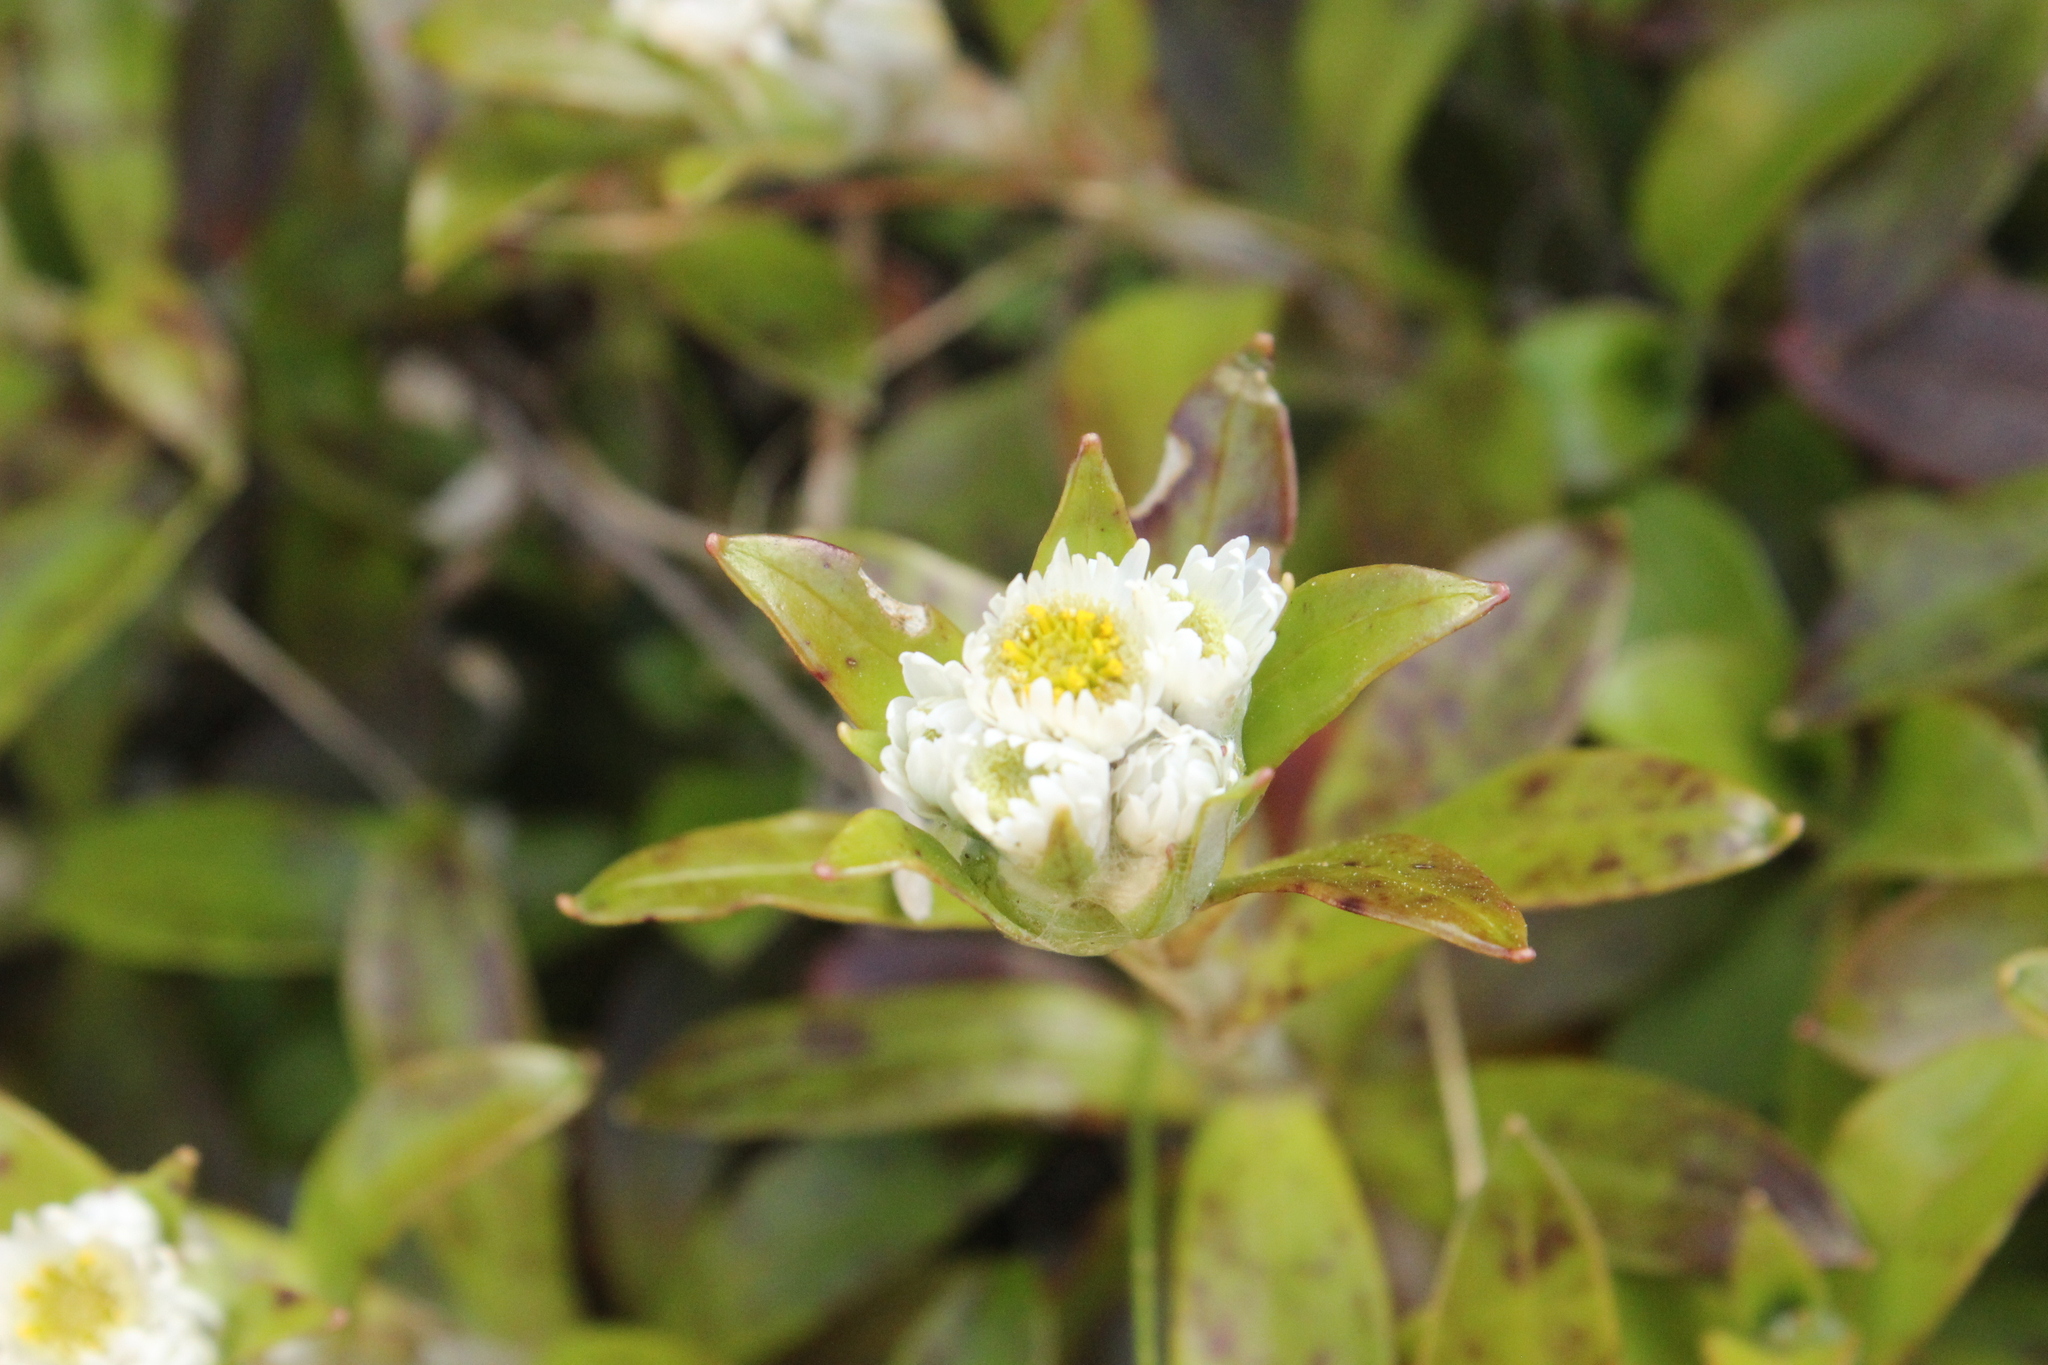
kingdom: Plantae
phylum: Tracheophyta
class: Magnoliopsida
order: Asterales
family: Asteraceae
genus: Anaphalioides
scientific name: Anaphalioides trinervis
